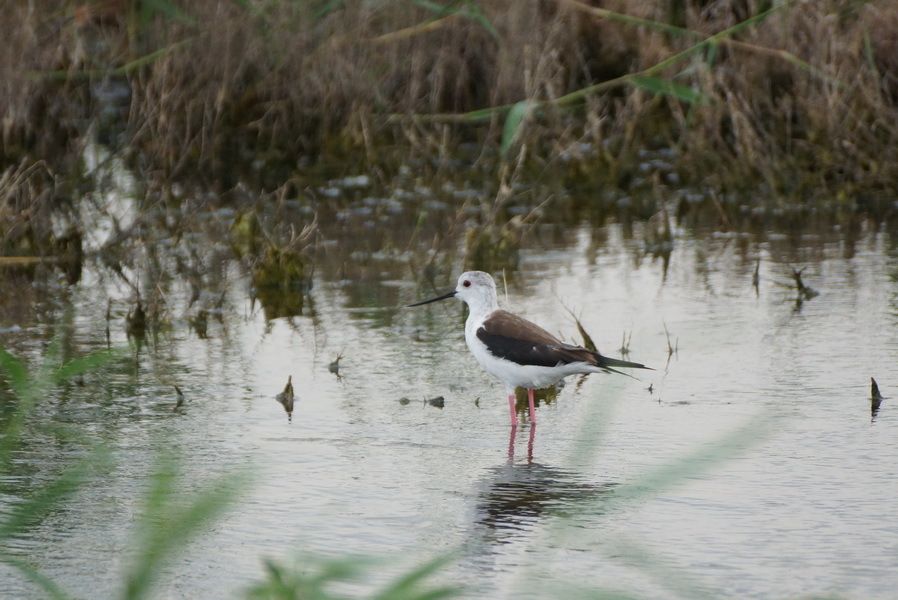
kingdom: Animalia
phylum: Chordata
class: Aves
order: Charadriiformes
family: Recurvirostridae
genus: Himantopus
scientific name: Himantopus himantopus
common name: Black-winged stilt
